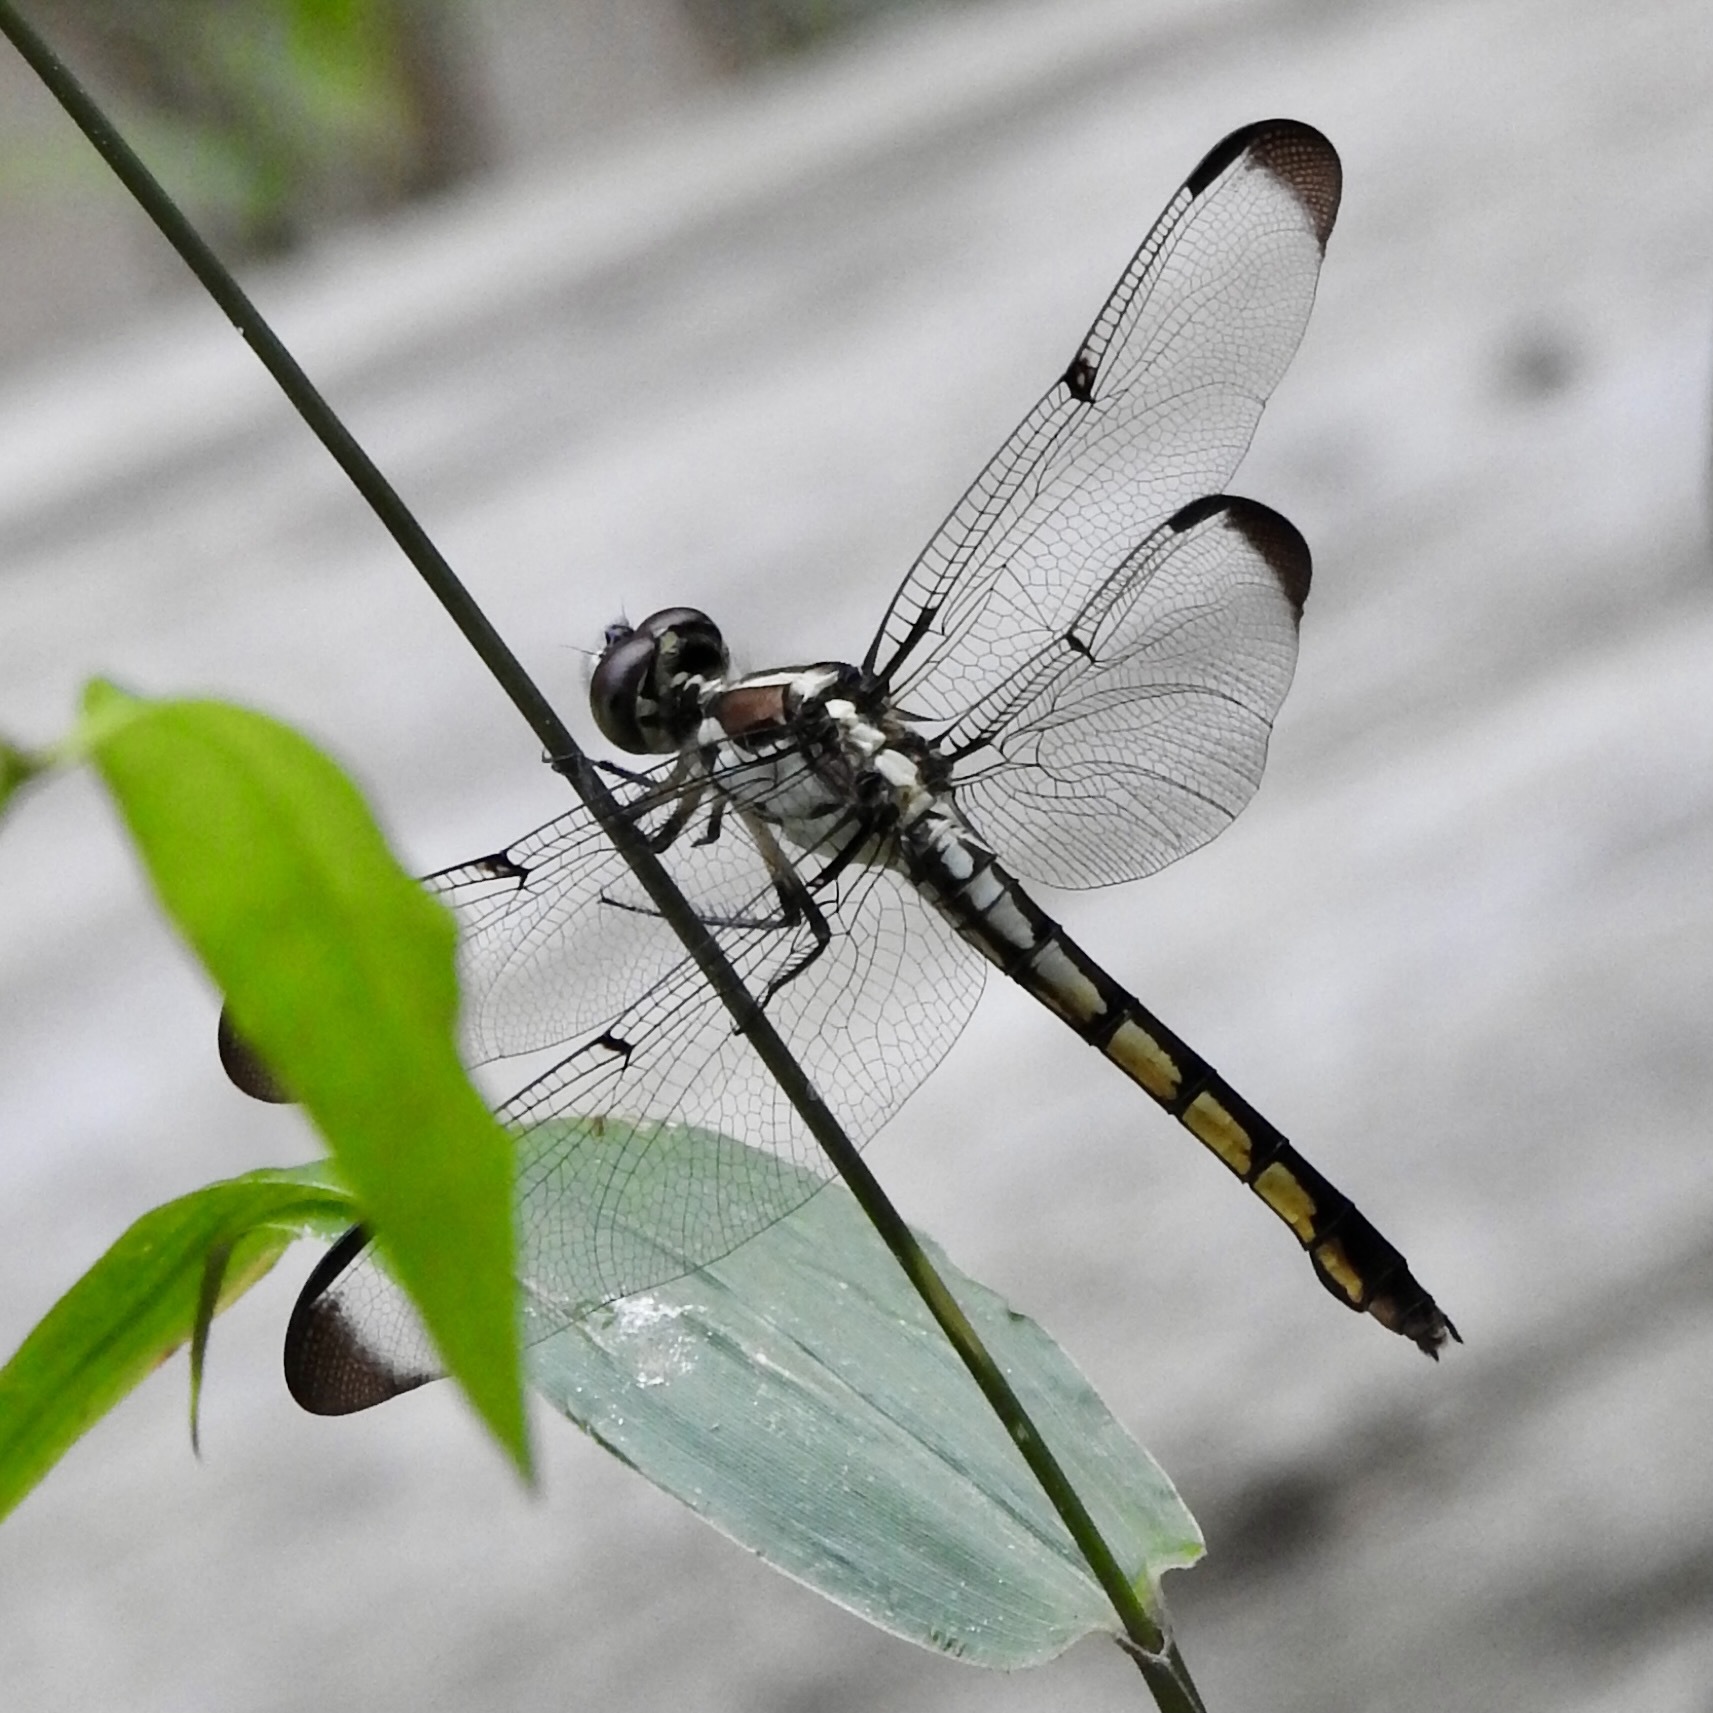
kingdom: Animalia
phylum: Arthropoda
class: Insecta
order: Odonata
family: Libellulidae
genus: Libellula
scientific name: Libellula vibrans
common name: Great blue skimmer
